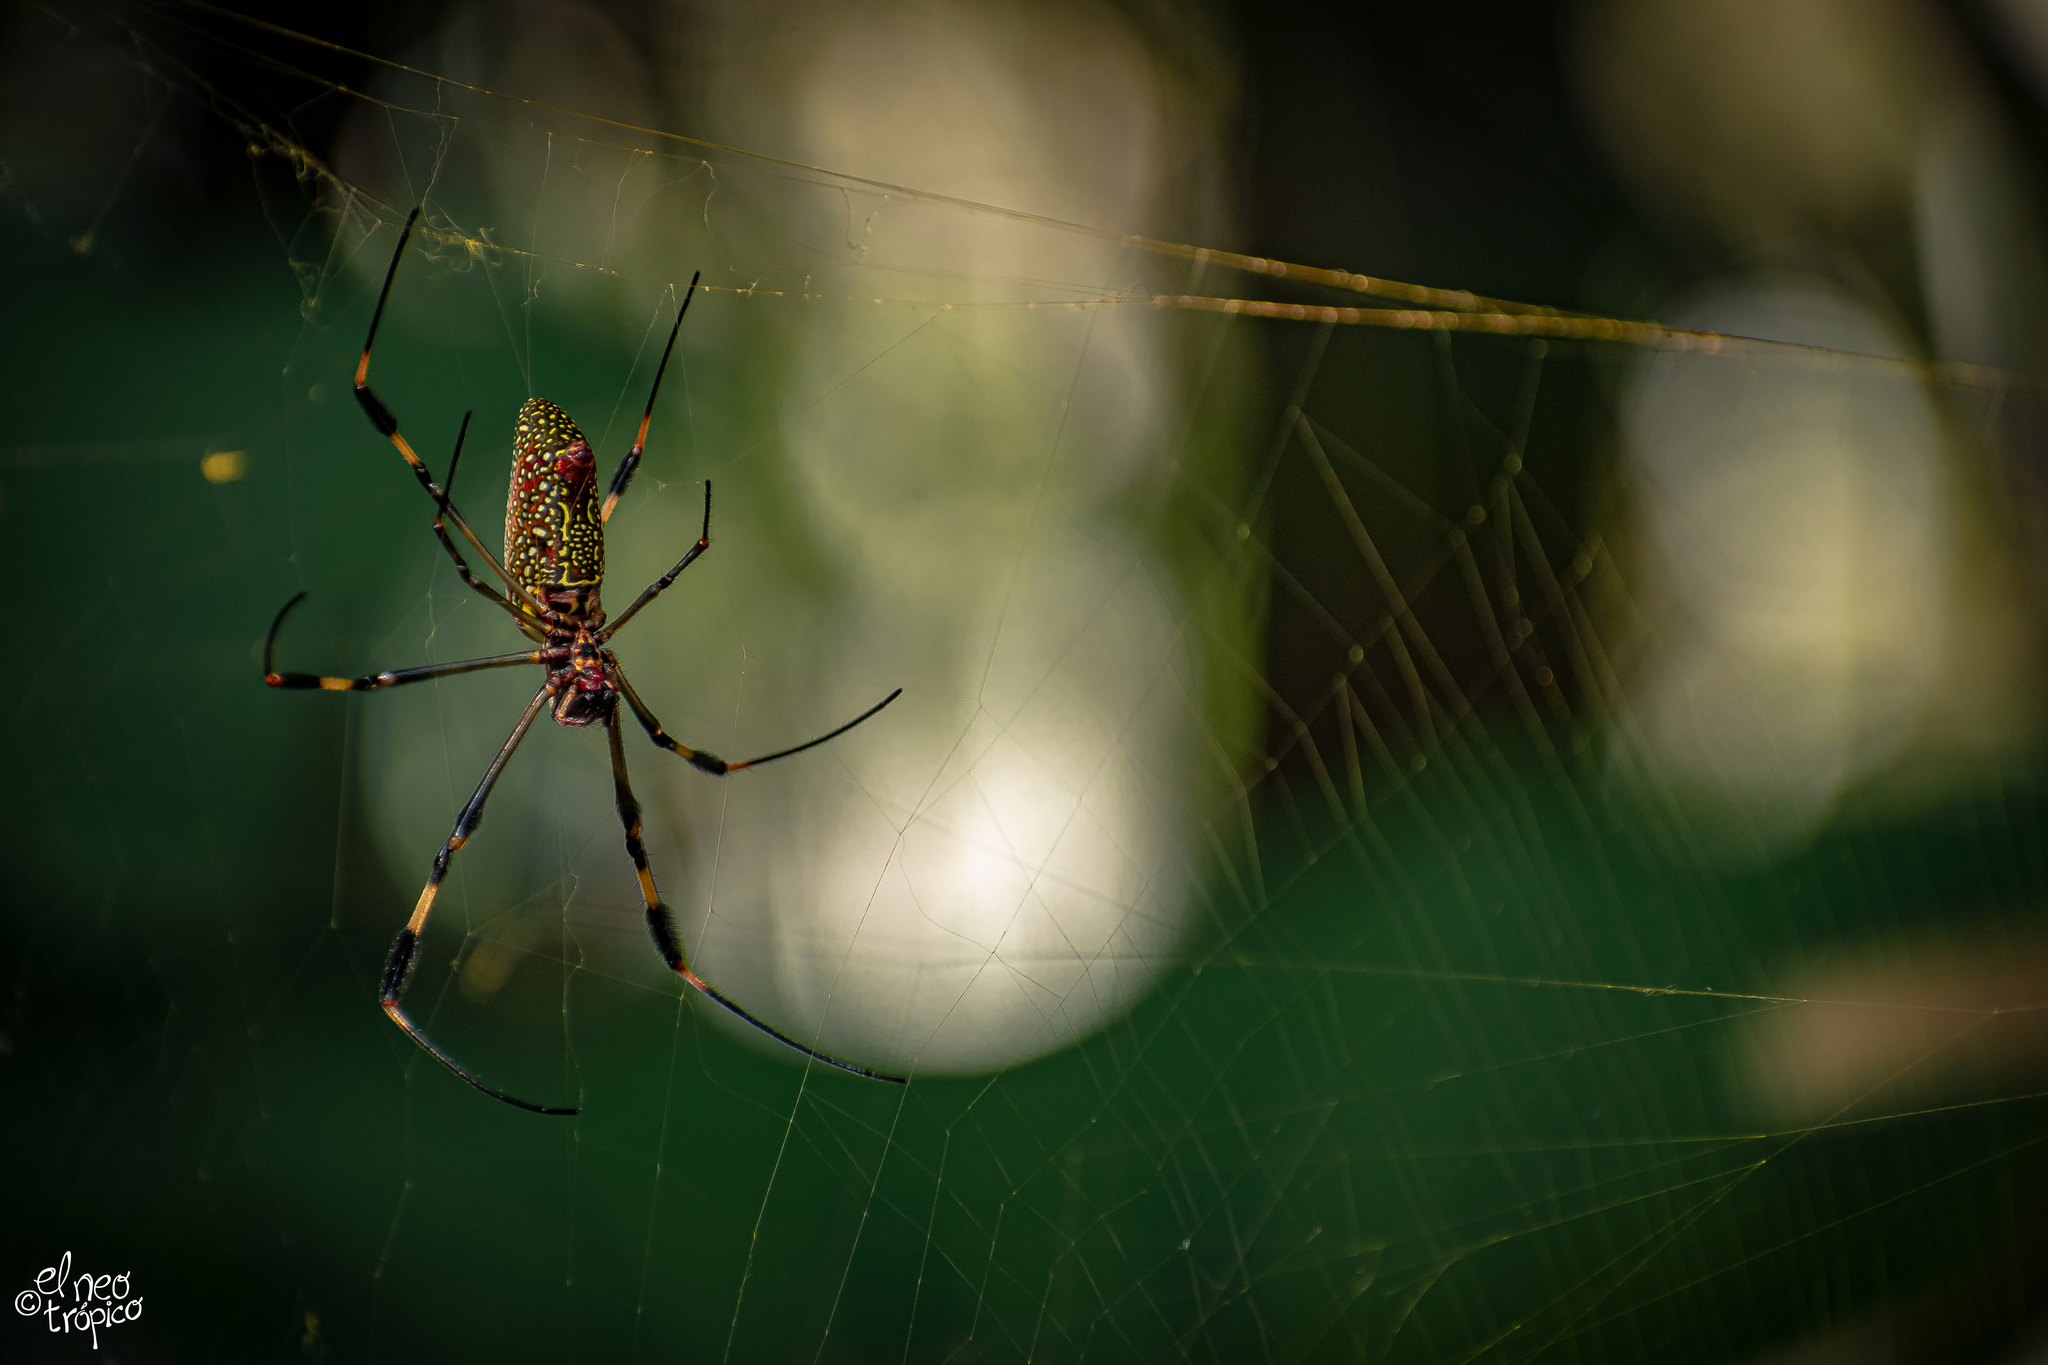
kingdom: Animalia
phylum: Arthropoda
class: Arachnida
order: Araneae
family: Araneidae
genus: Trichonephila
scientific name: Trichonephila clavipes
